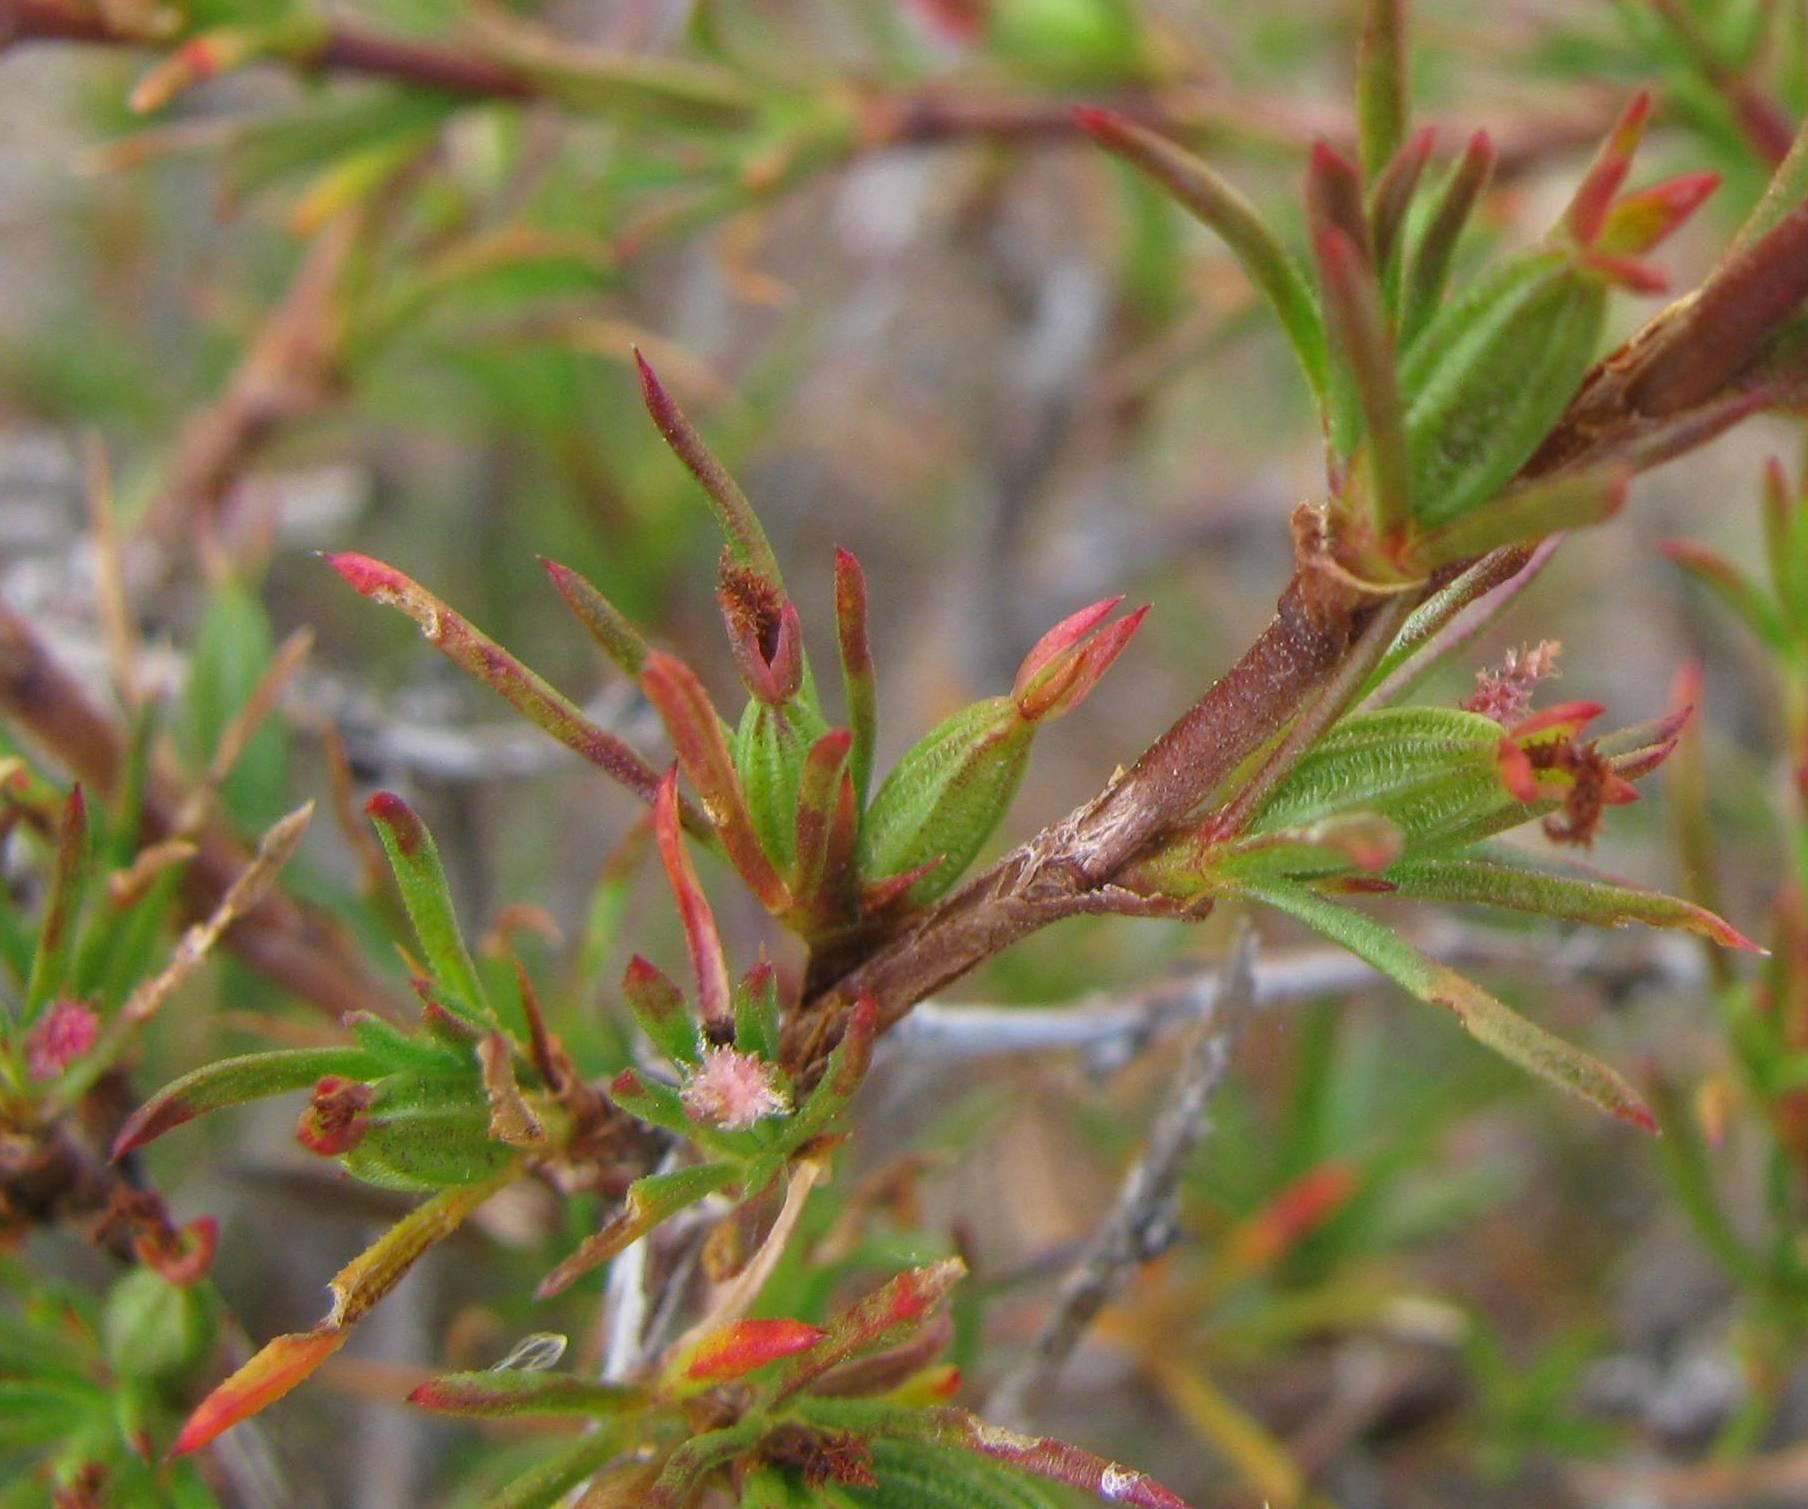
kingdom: Plantae
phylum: Tracheophyta
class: Magnoliopsida
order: Rosales
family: Rosaceae
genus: Cliffortia
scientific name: Cliffortia juniperina
